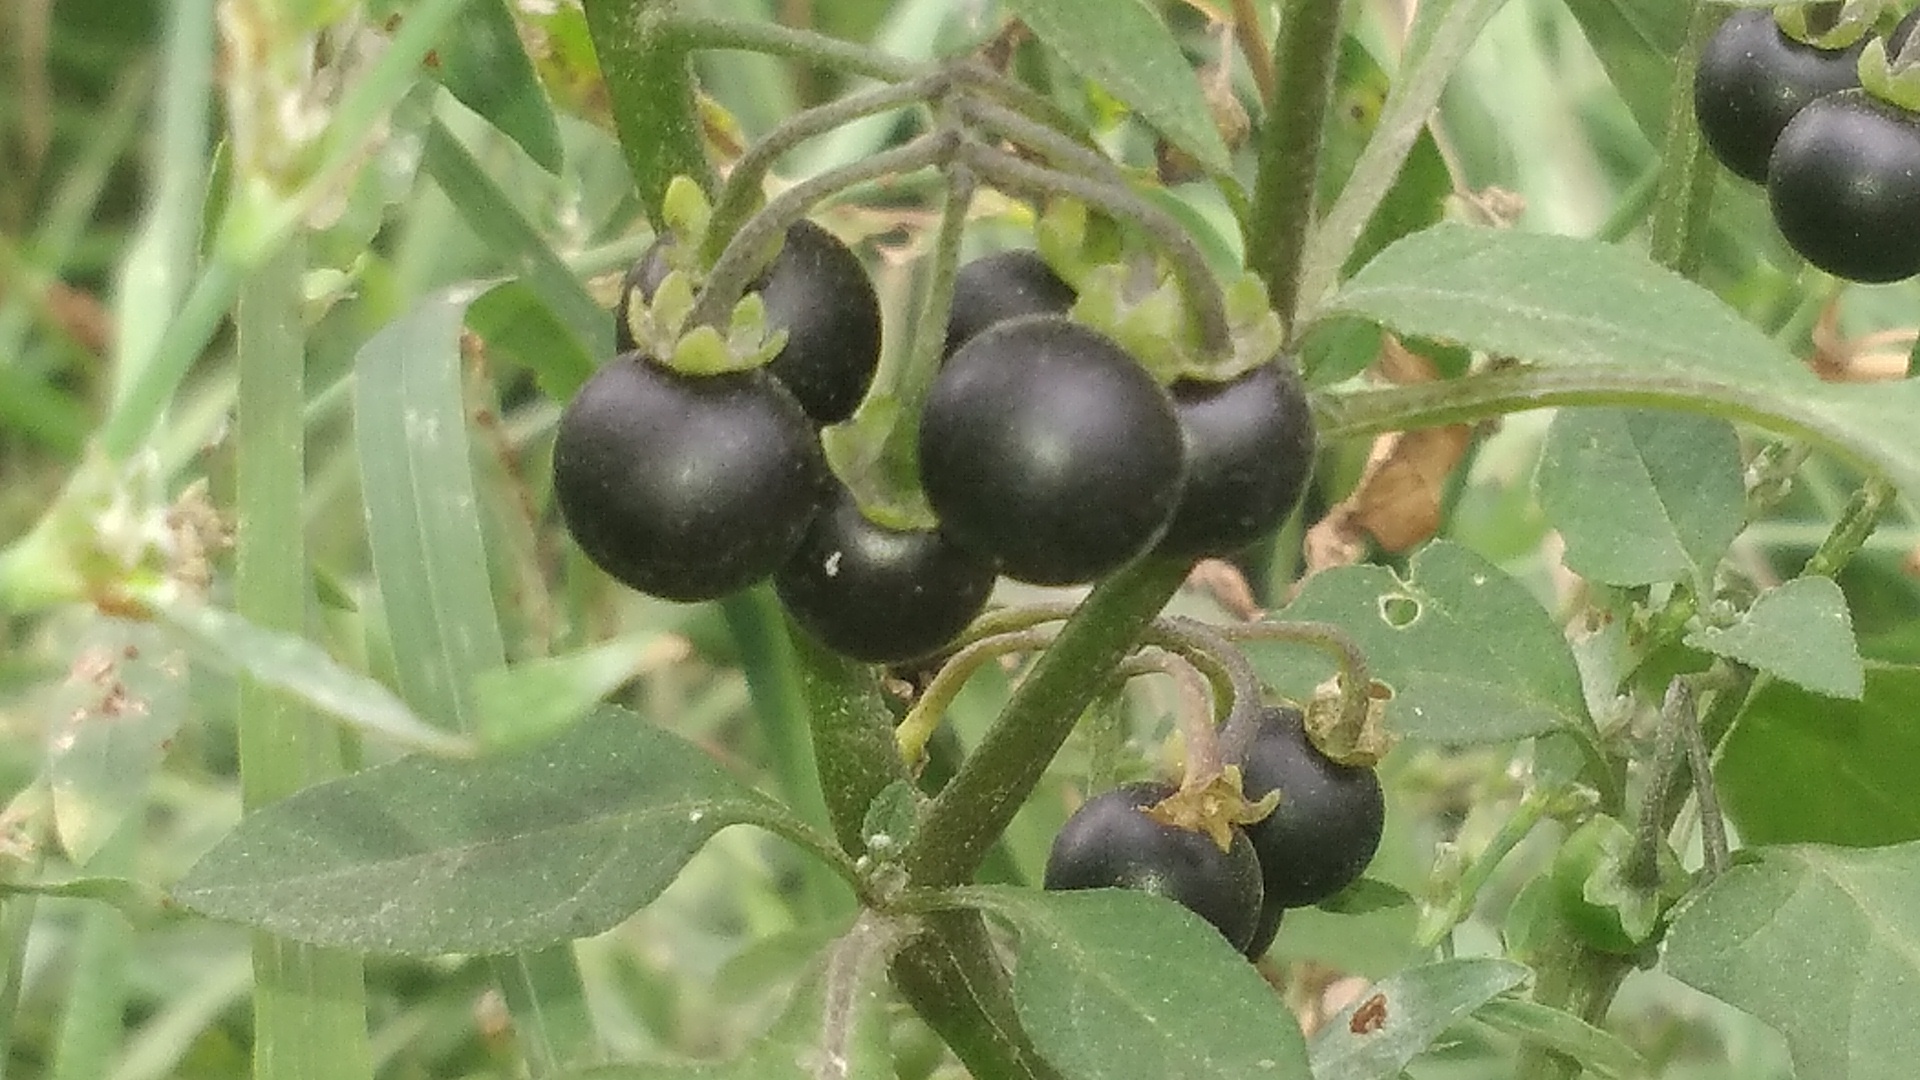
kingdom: Plantae
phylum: Tracheophyta
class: Magnoliopsida
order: Solanales
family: Solanaceae
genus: Solanum
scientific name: Solanum nigrum
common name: Black nightshade
